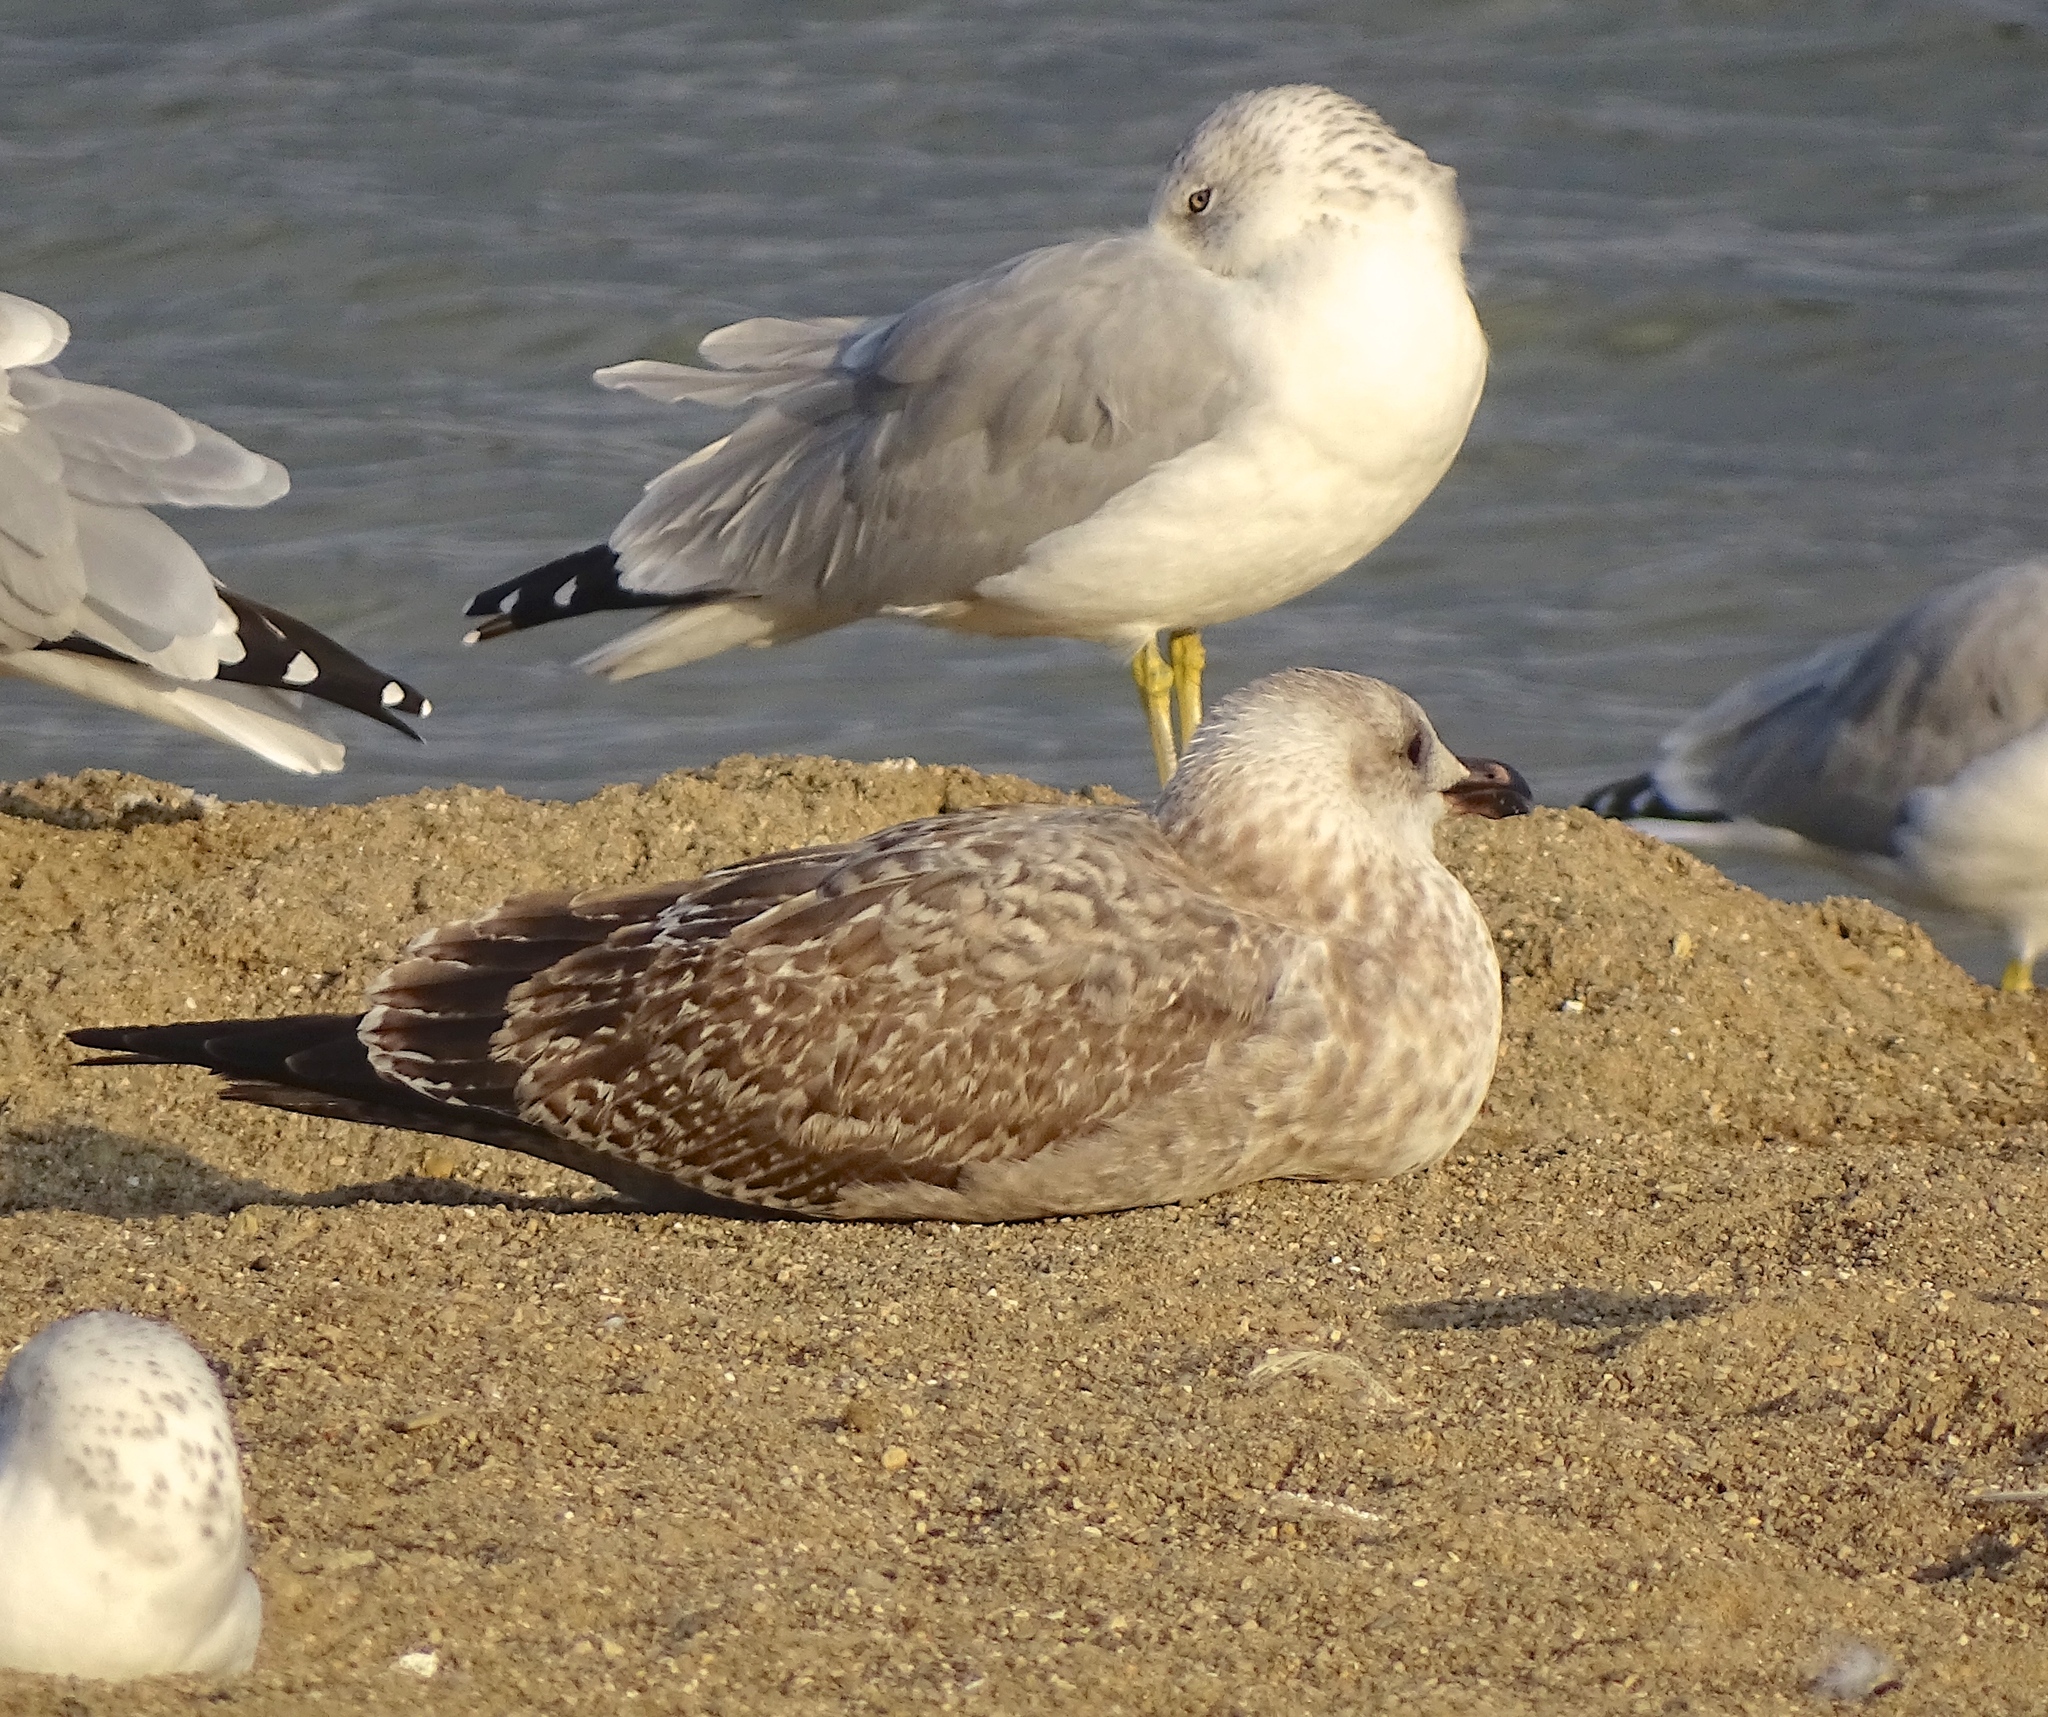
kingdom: Animalia
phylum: Chordata
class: Aves
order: Charadriiformes
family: Laridae
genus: Larus
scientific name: Larus argentatus
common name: Herring gull
